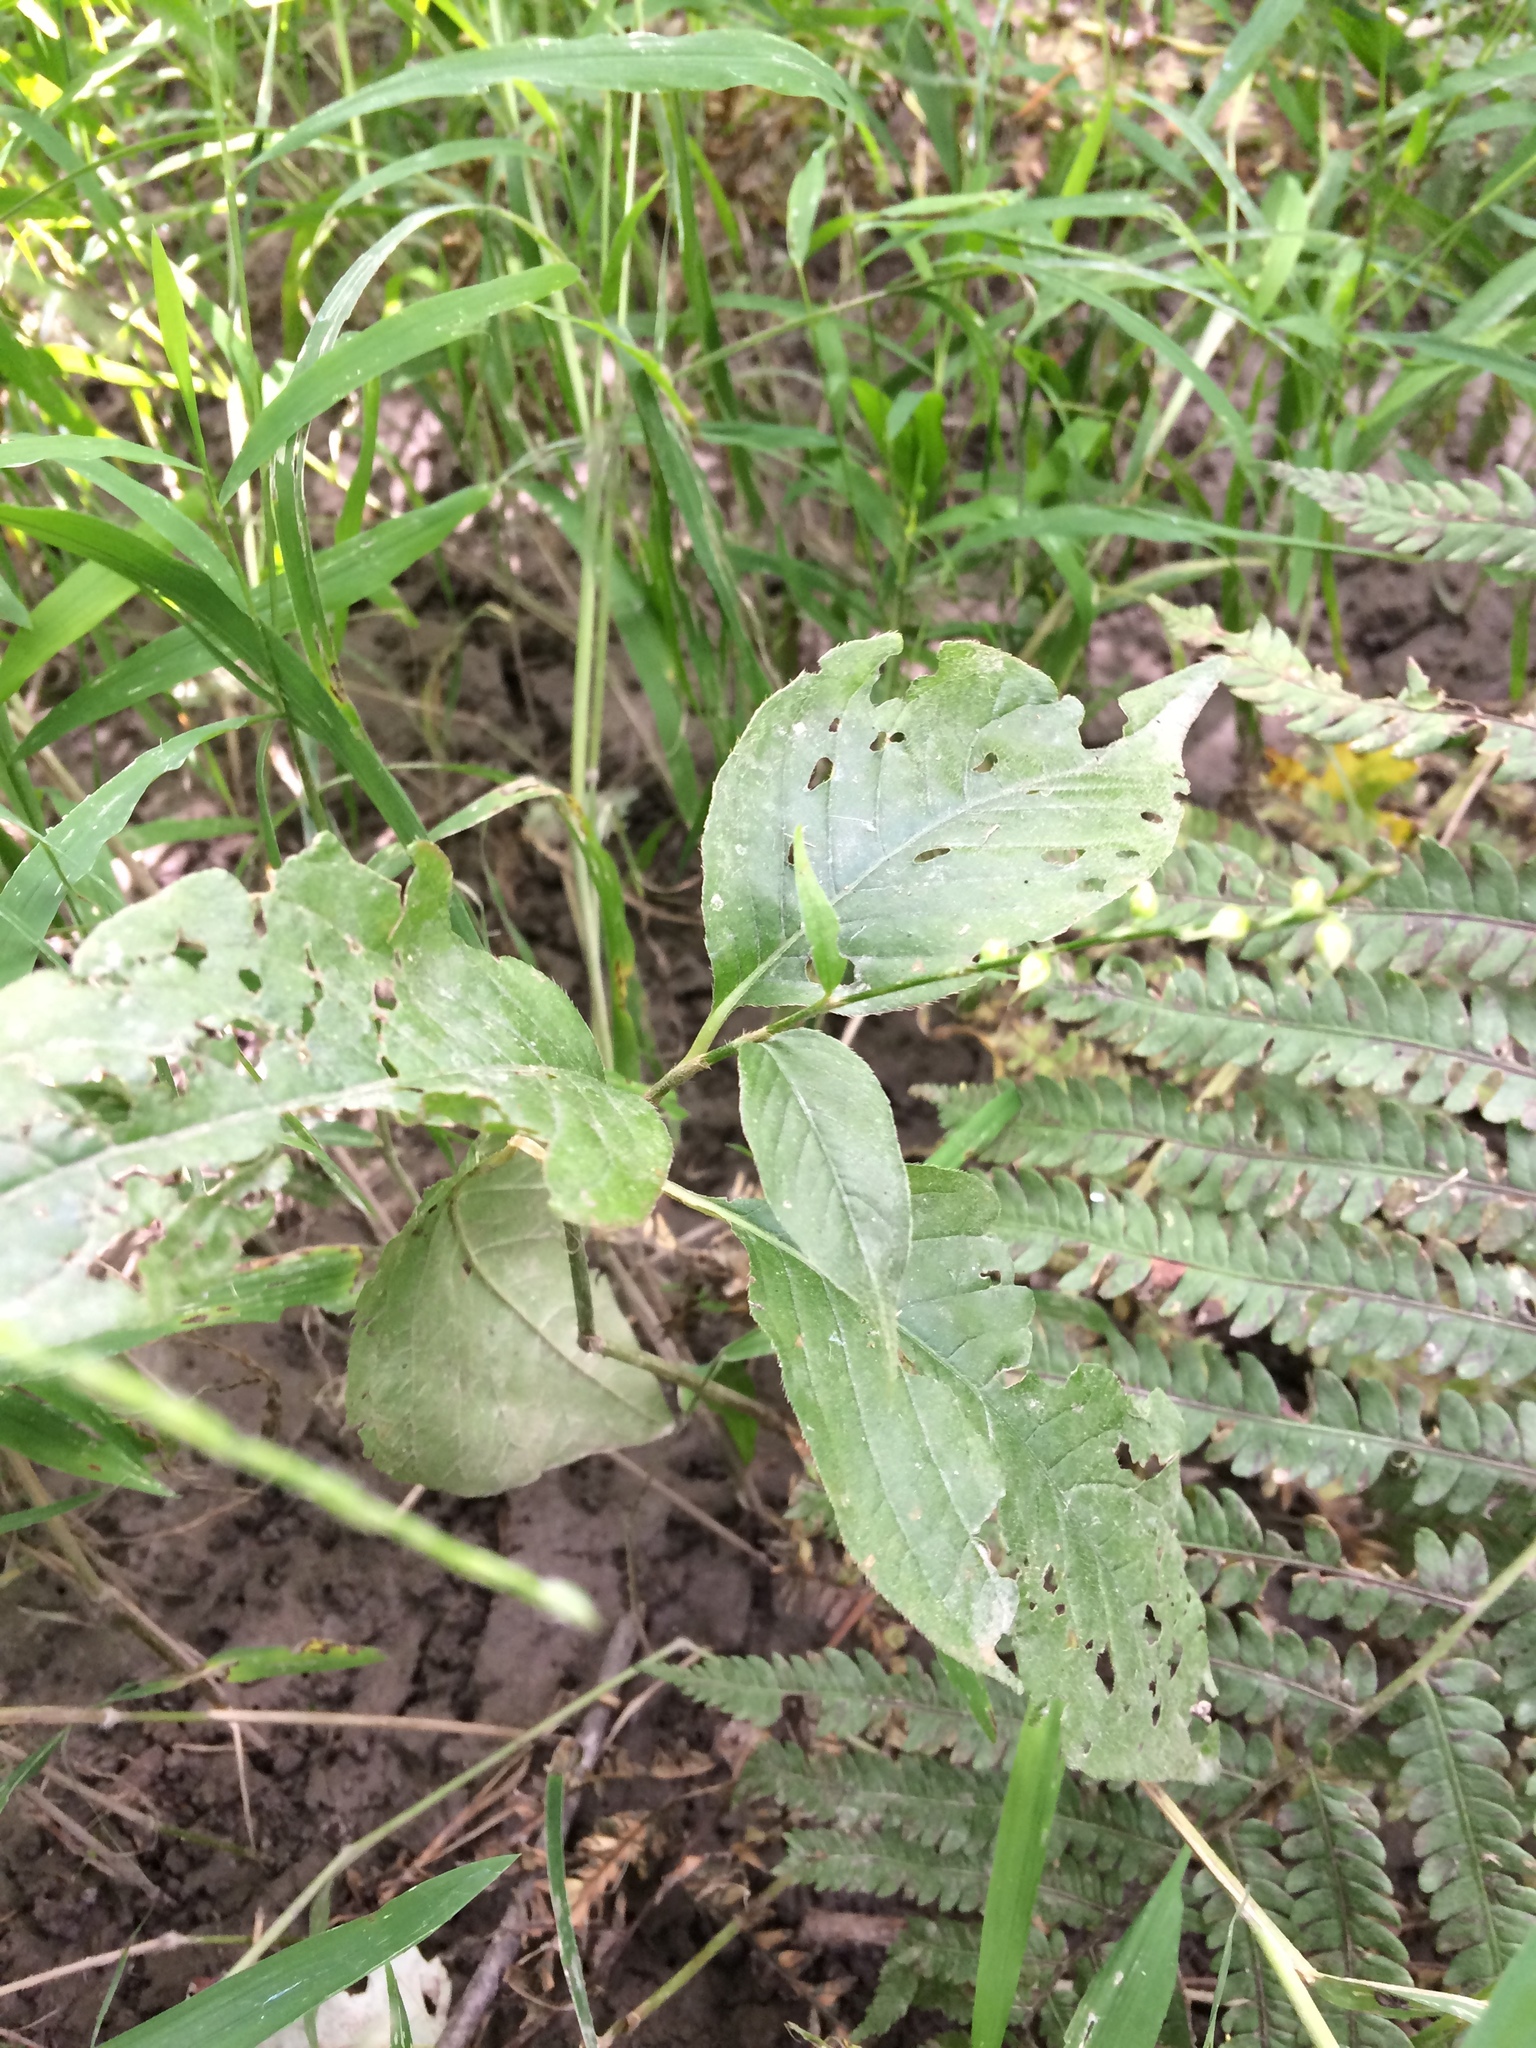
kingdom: Plantae
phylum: Tracheophyta
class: Magnoliopsida
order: Caryophyllales
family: Polygonaceae
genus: Persicaria
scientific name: Persicaria virginiana
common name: Jumpseed
